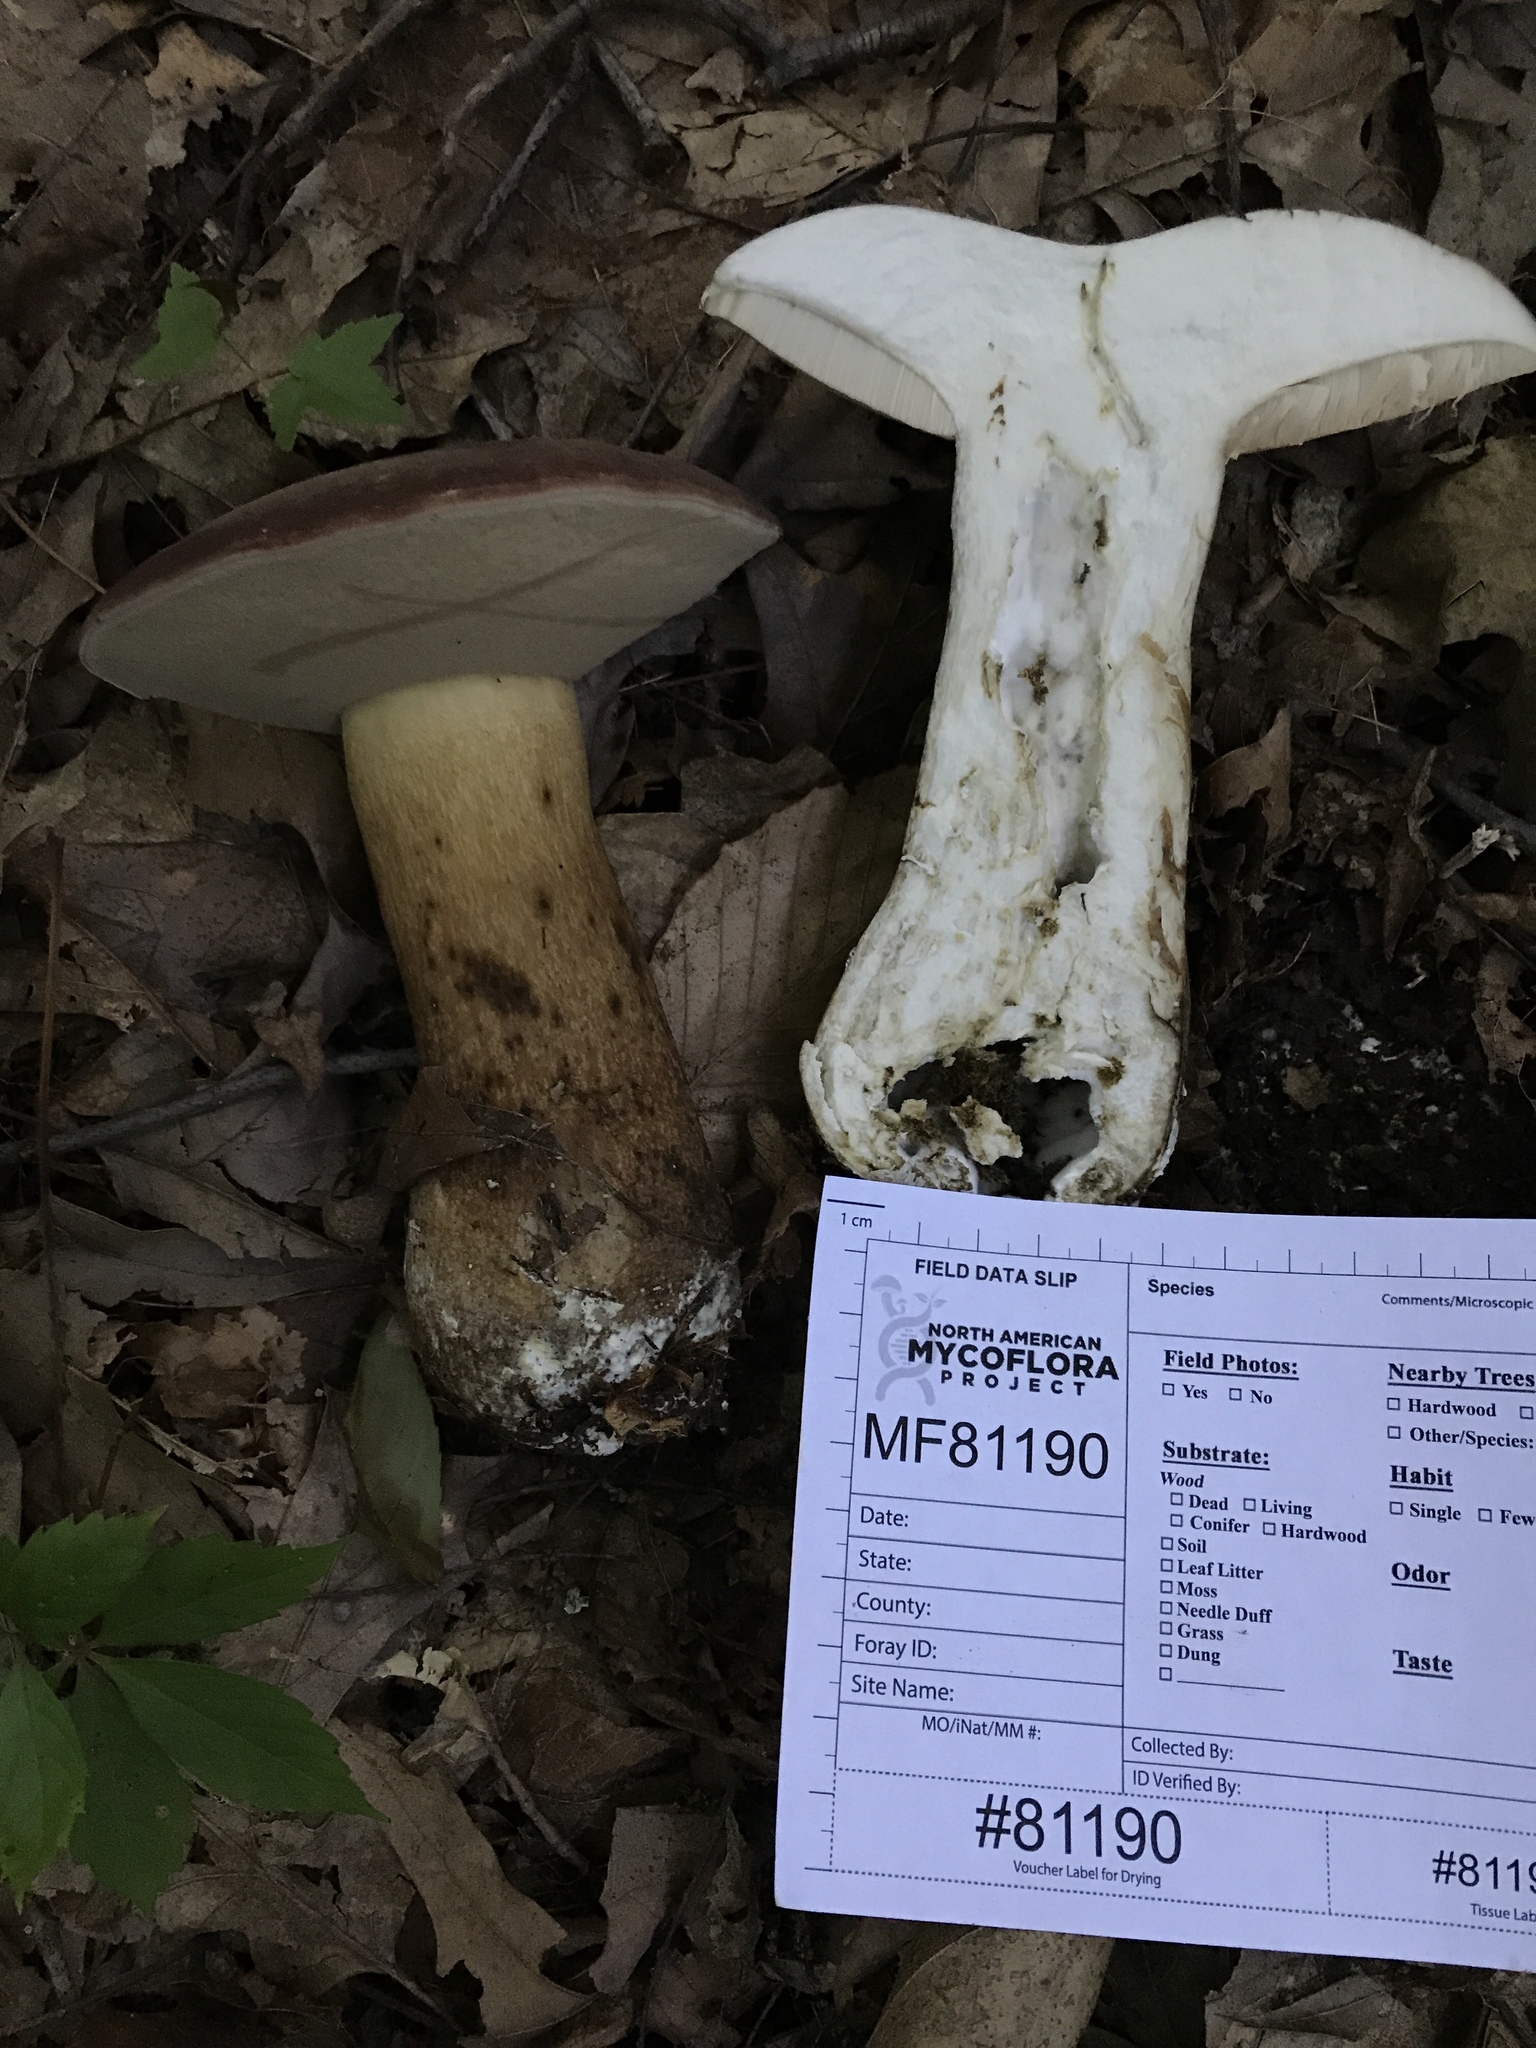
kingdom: Fungi
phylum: Basidiomycota
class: Agaricomycetes
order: Boletales
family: Boletaceae
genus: Tylopilus
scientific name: Tylopilus rubrobrunneus
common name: Reddish brown bitter bolete
